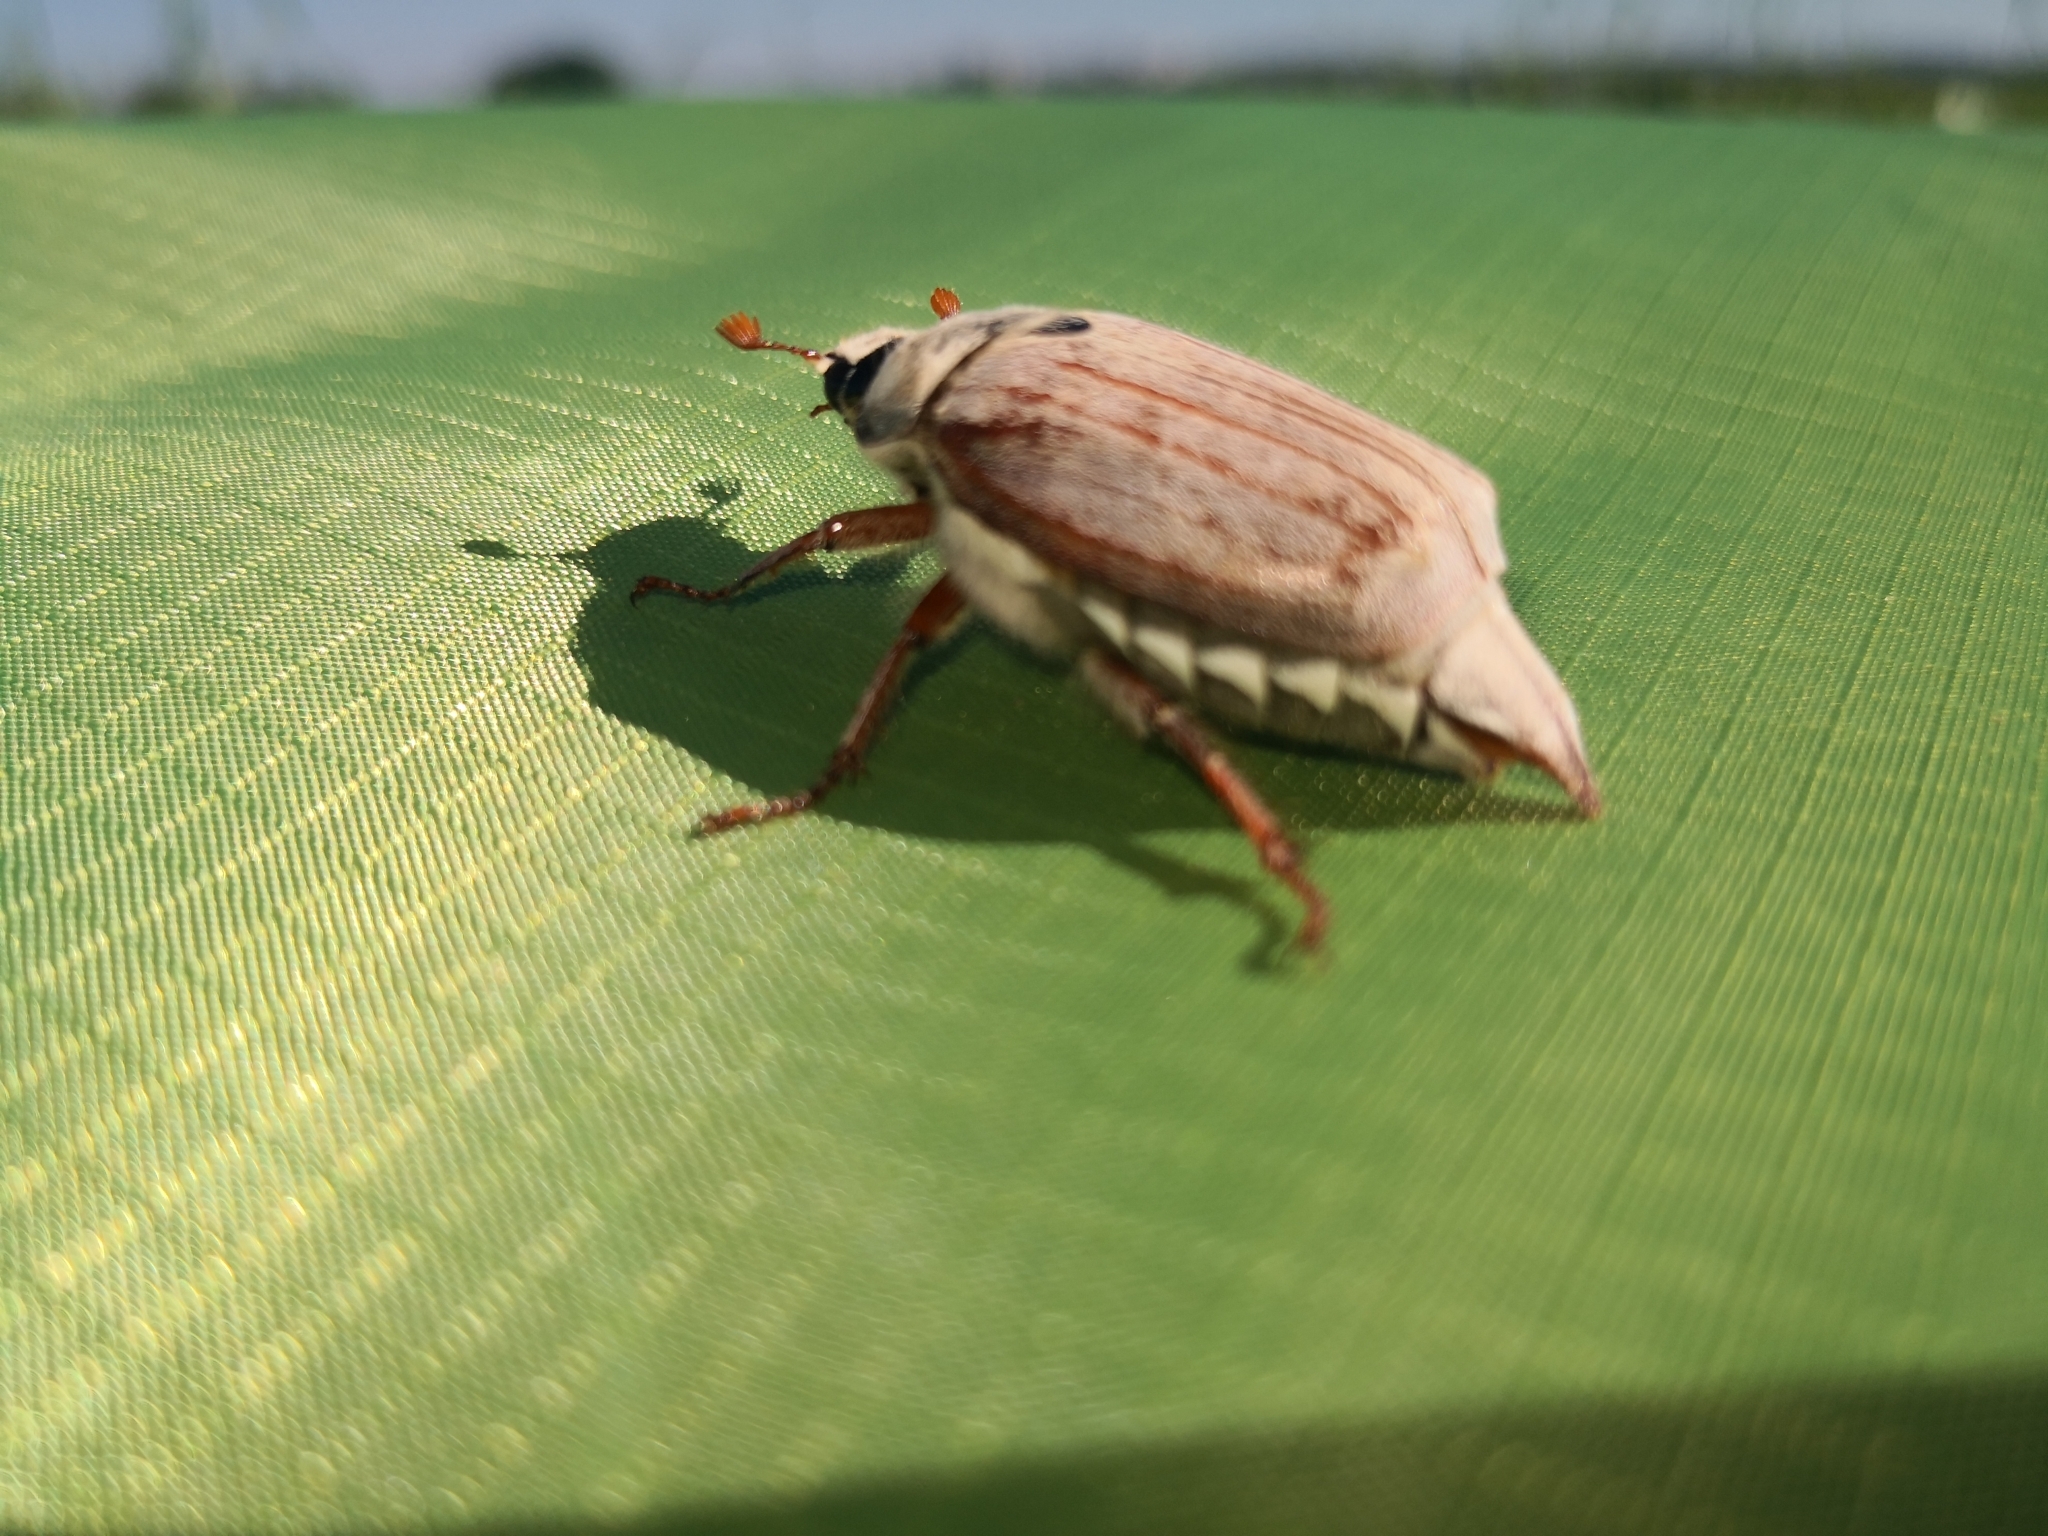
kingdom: Animalia
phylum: Arthropoda
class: Insecta
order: Coleoptera
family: Scarabaeidae
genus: Melolontha
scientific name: Melolontha melolontha
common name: Cockchafer maybeetle
